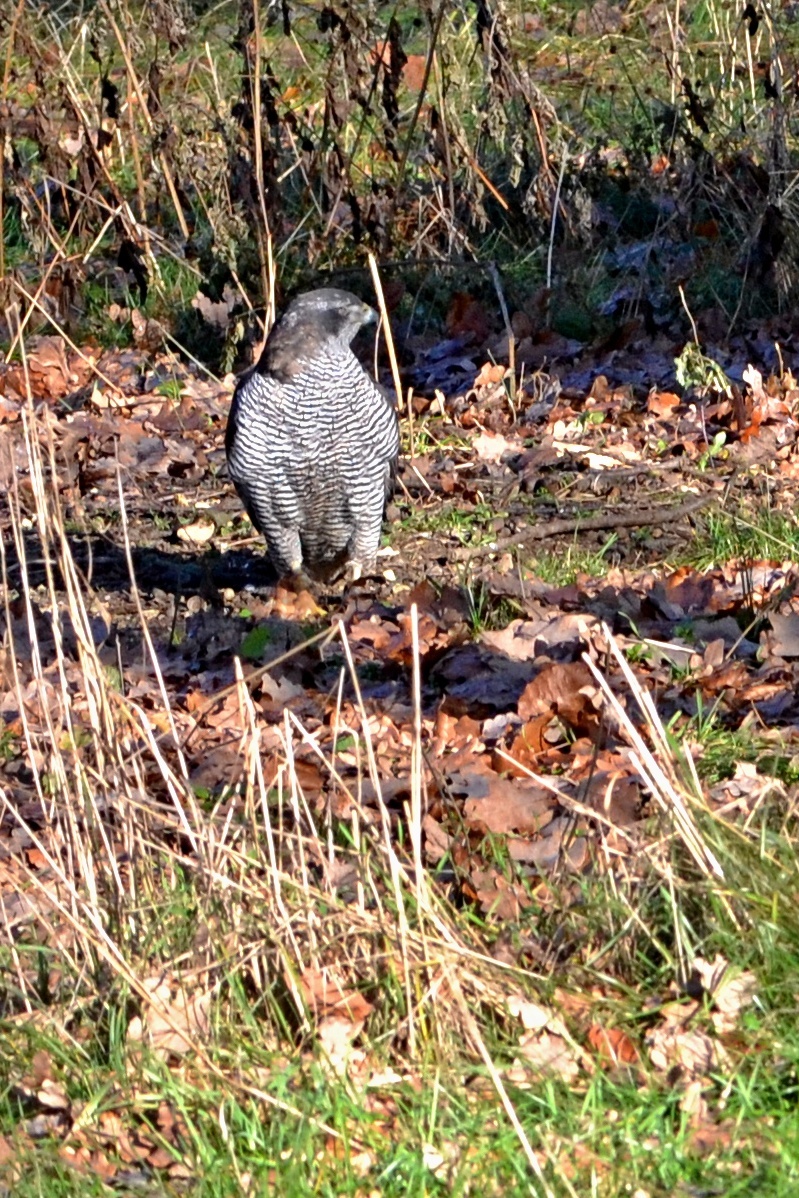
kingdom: Animalia
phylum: Chordata
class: Aves
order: Accipitriformes
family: Accipitridae
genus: Accipiter
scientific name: Accipiter gentilis
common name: Northern goshawk
